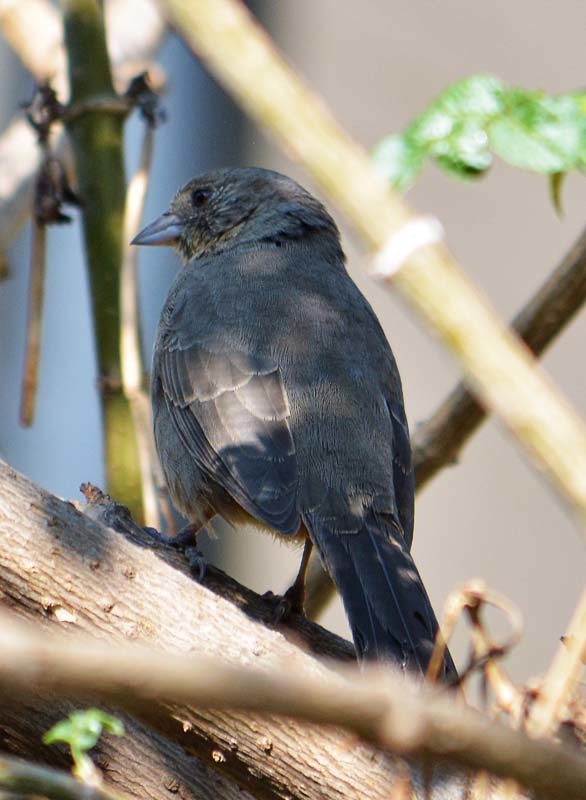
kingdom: Animalia
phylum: Chordata
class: Aves
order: Passeriformes
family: Passerellidae
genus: Melozone
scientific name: Melozone fusca
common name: Canyon towhee
